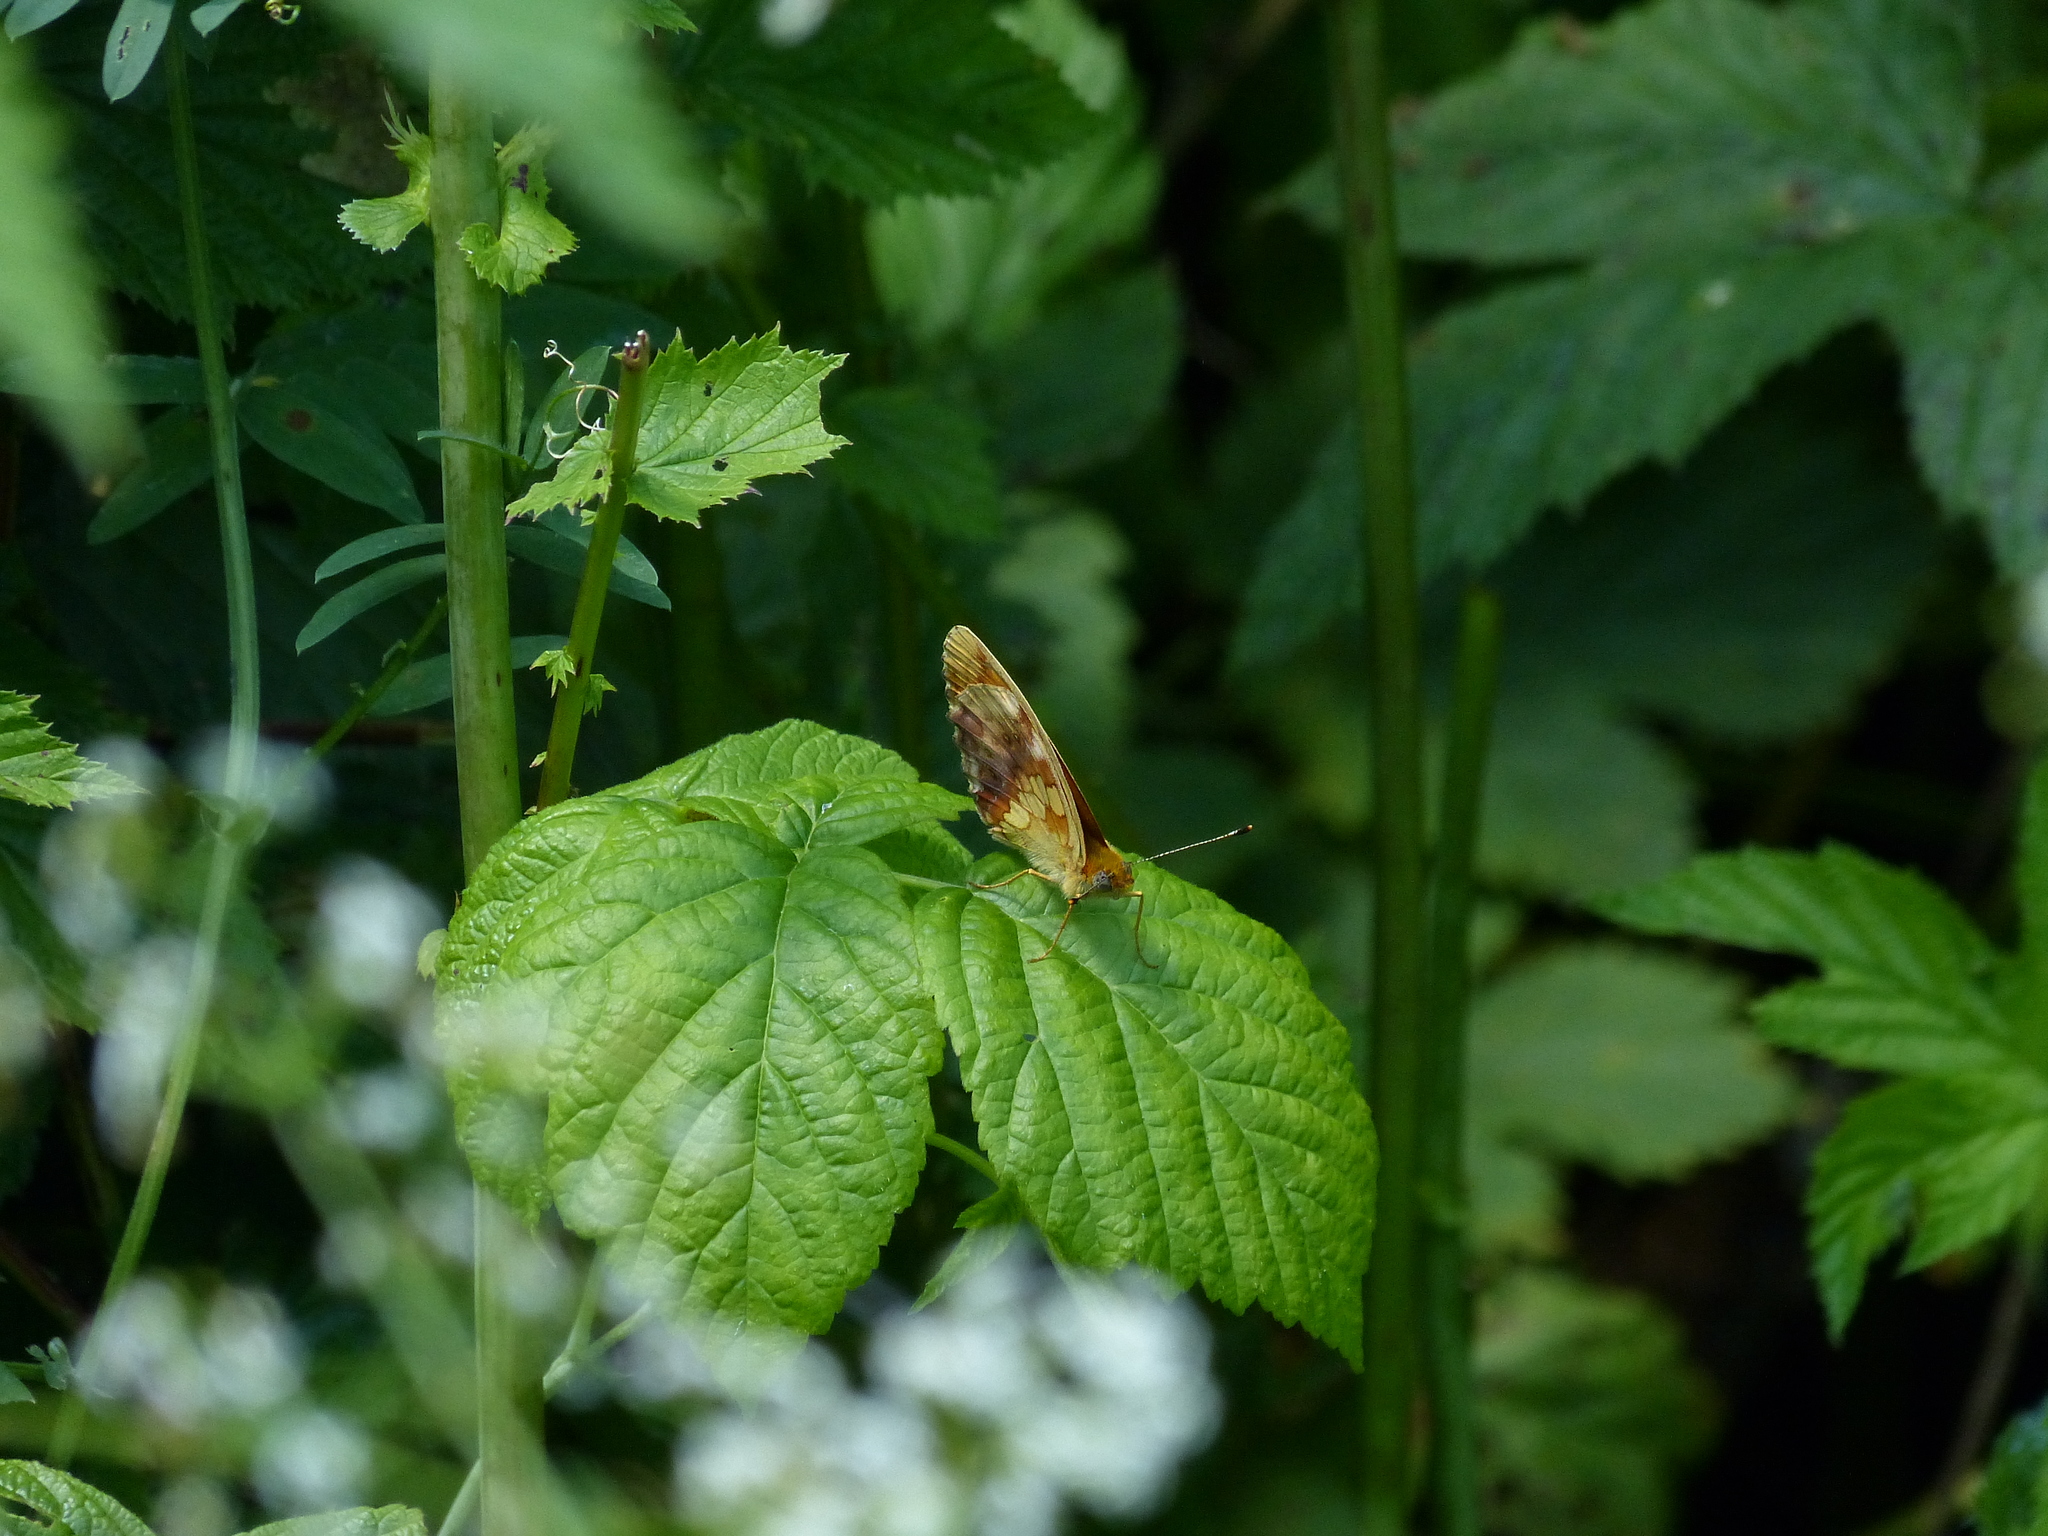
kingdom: Animalia
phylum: Arthropoda
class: Insecta
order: Lepidoptera
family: Nymphalidae
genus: Brenthis
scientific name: Brenthis daphne
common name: Marbled fritillary
